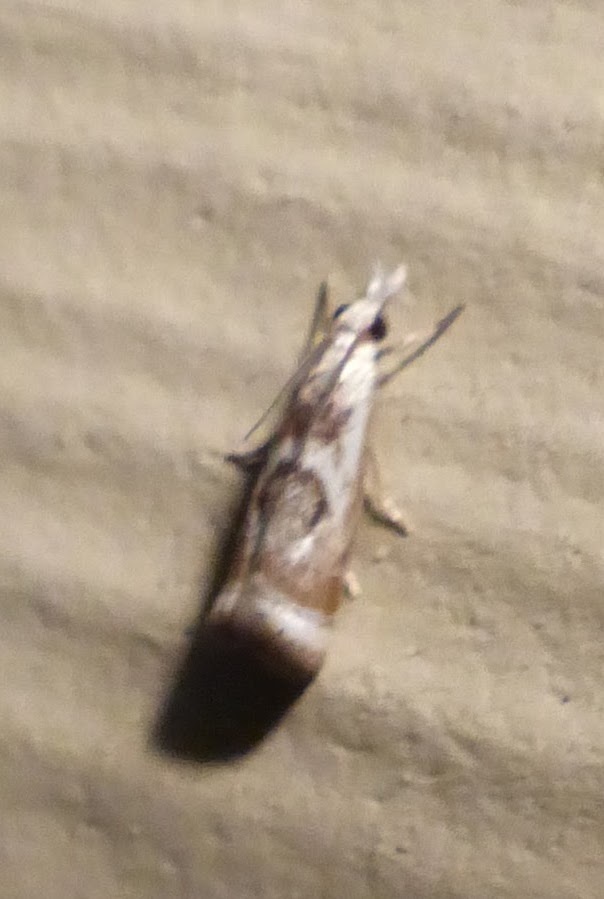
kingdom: Animalia
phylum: Arthropoda
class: Insecta
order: Lepidoptera
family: Crambidae
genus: Microcrambus
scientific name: Microcrambus elegans
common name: Elegant grass-veneer
